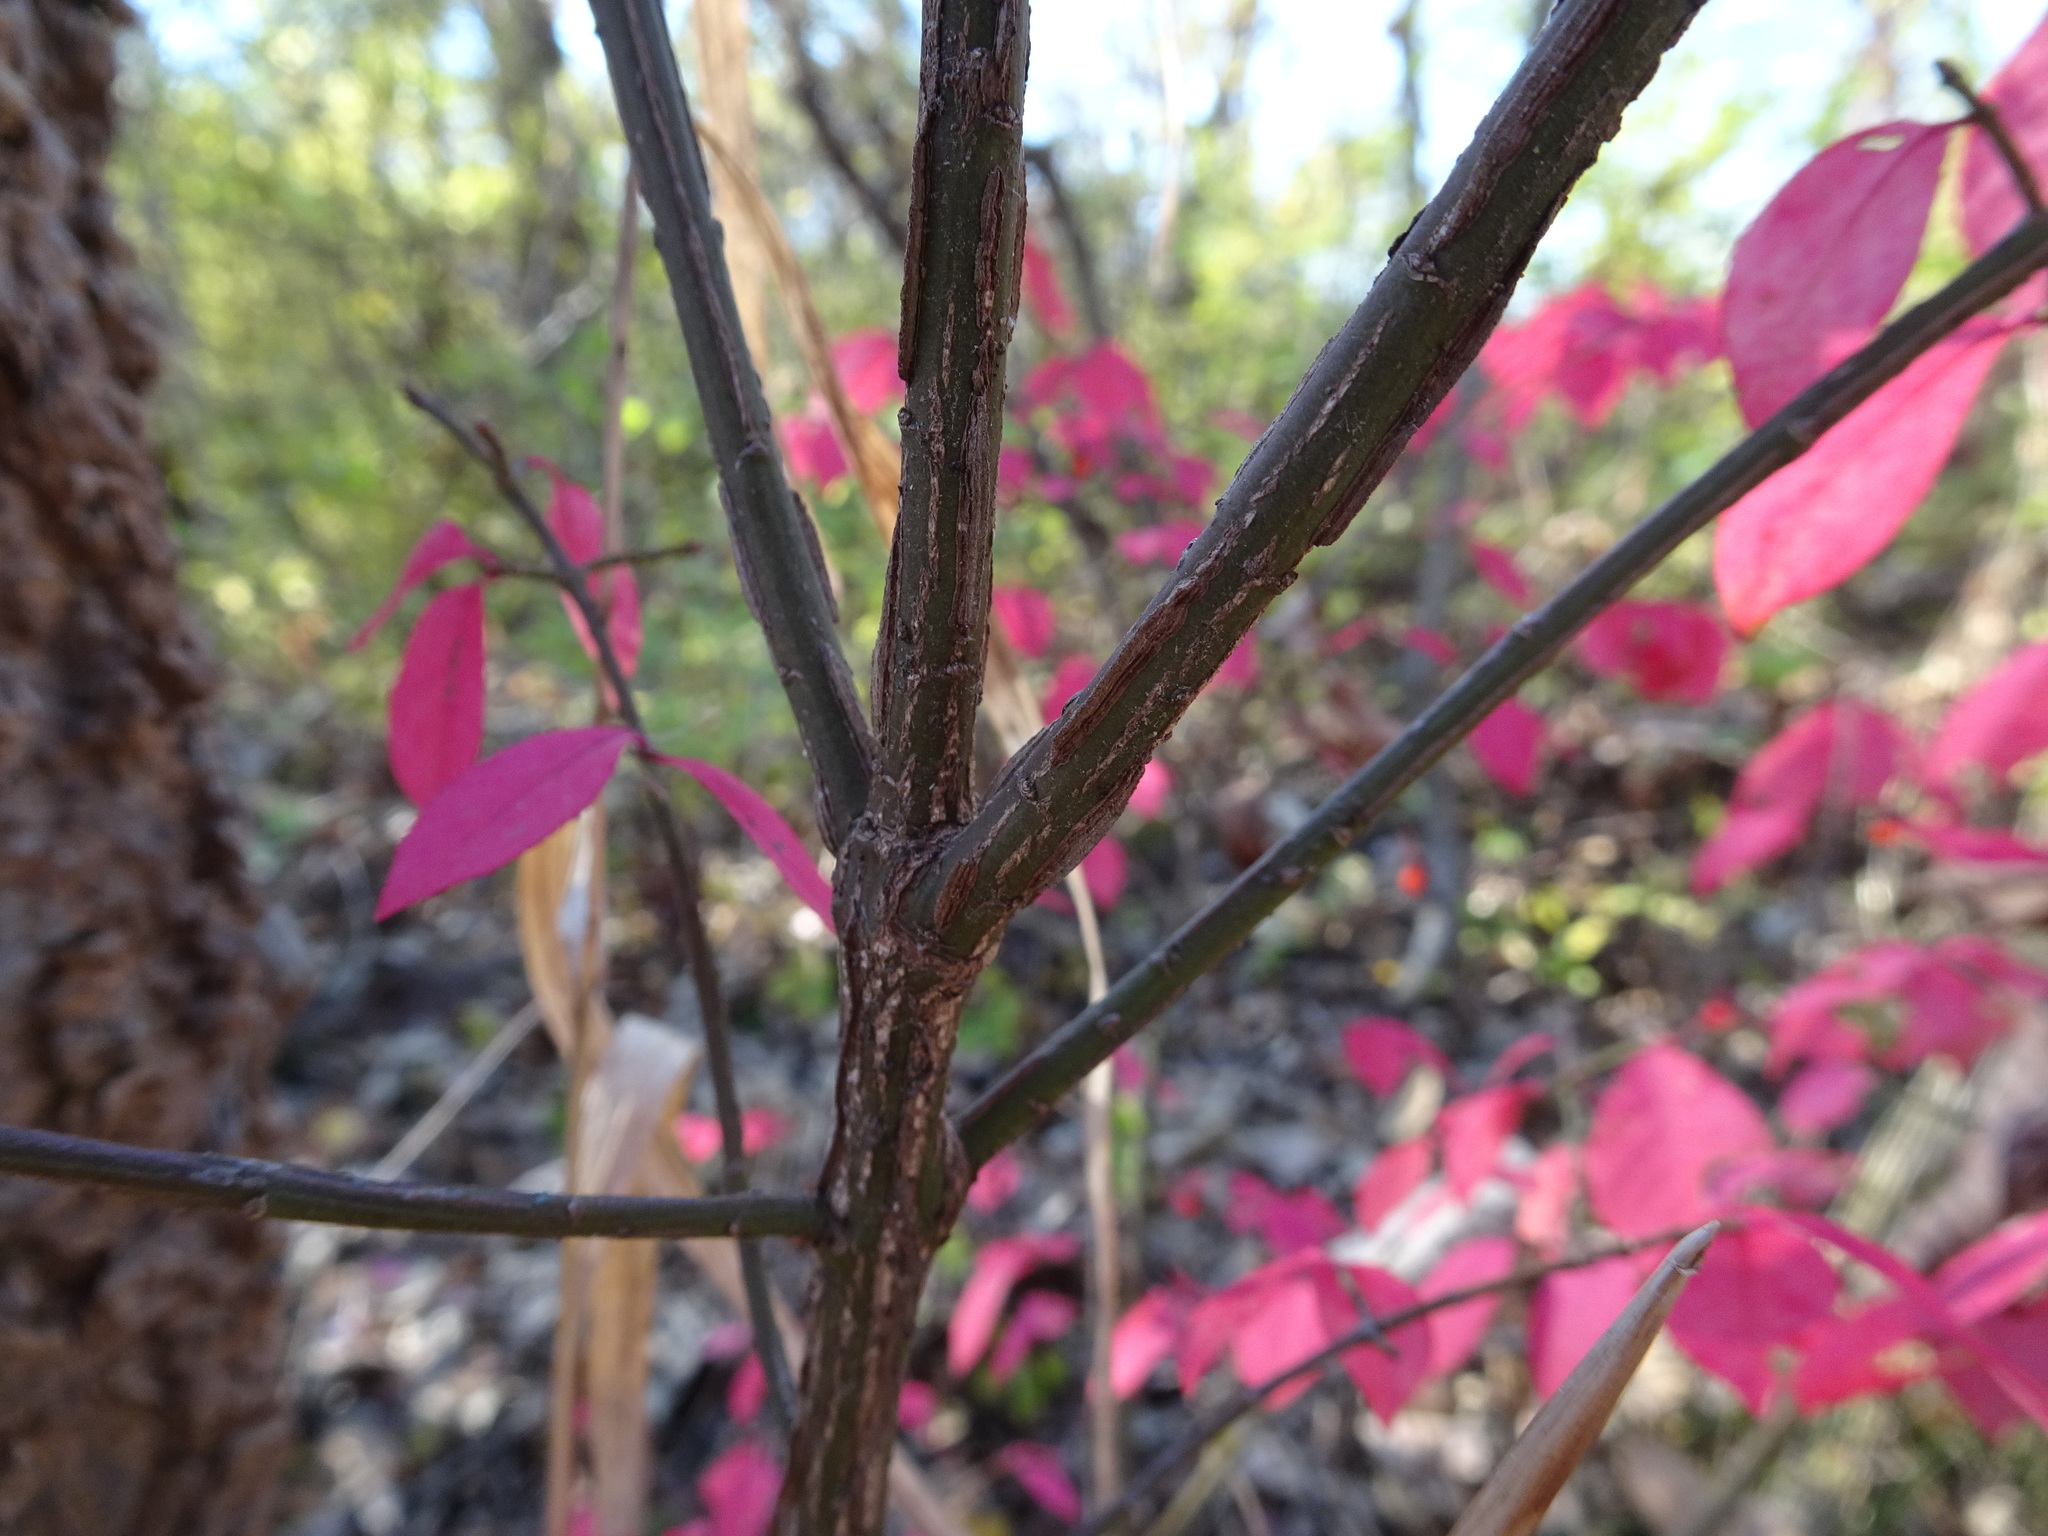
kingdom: Plantae
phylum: Tracheophyta
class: Magnoliopsida
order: Celastrales
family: Celastraceae
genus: Euonymus
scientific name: Euonymus alatus
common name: Winged euonymus
